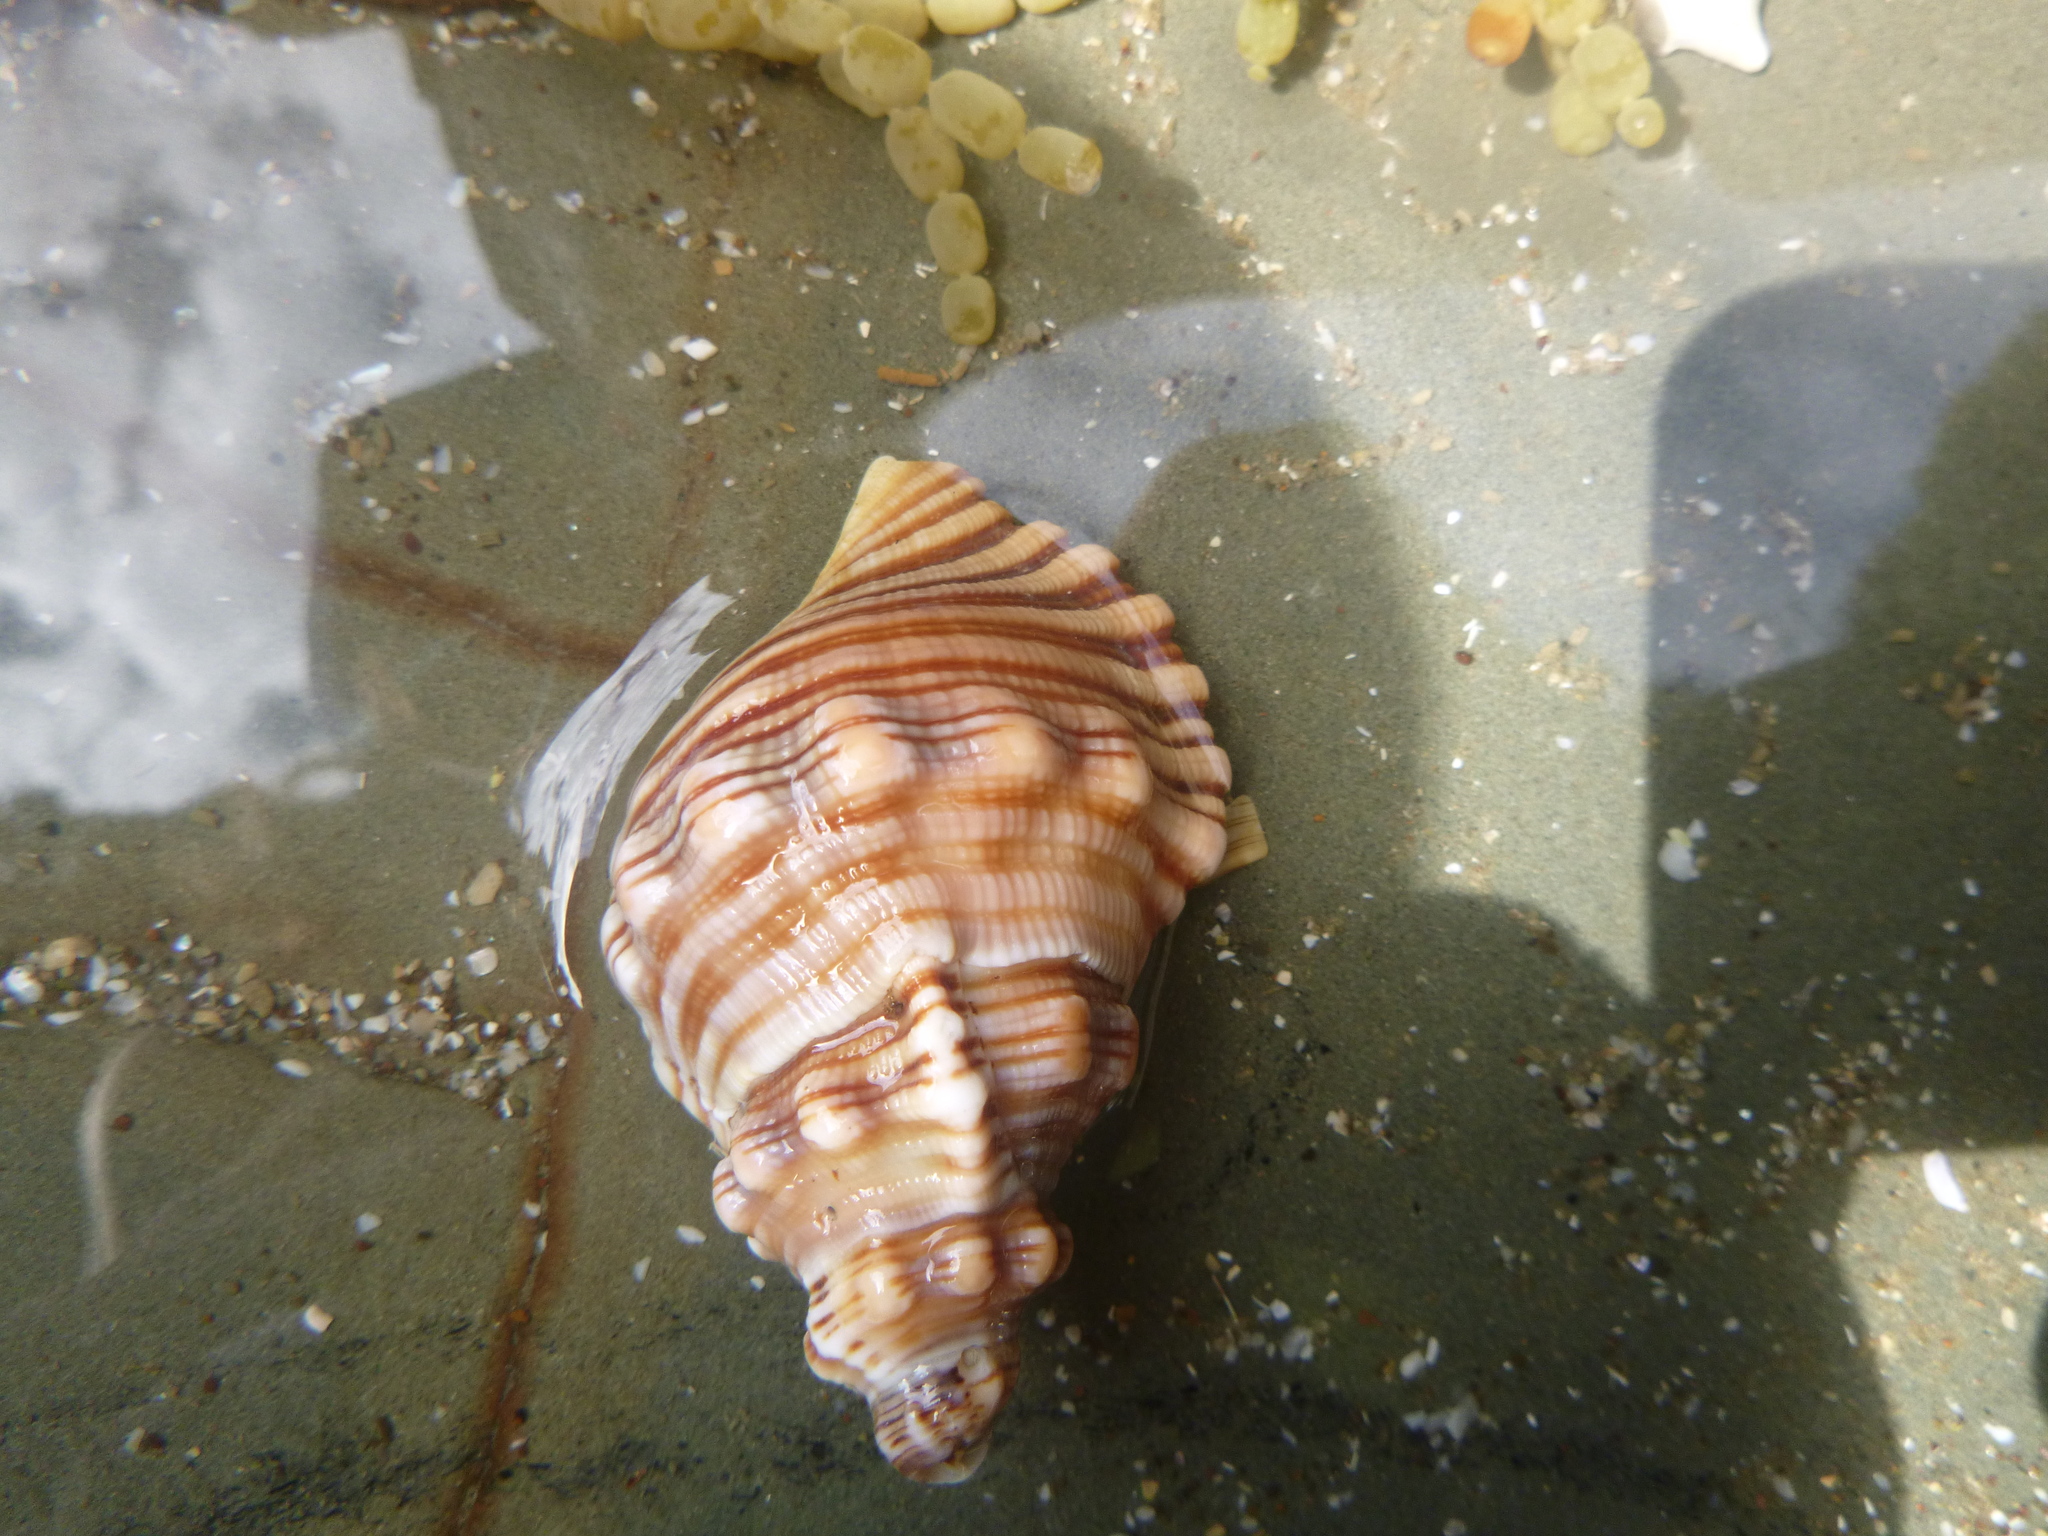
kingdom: Animalia
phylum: Mollusca
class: Gastropoda
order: Littorinimorpha
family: Cymatiidae
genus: Cabestana
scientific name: Cabestana spengleri
